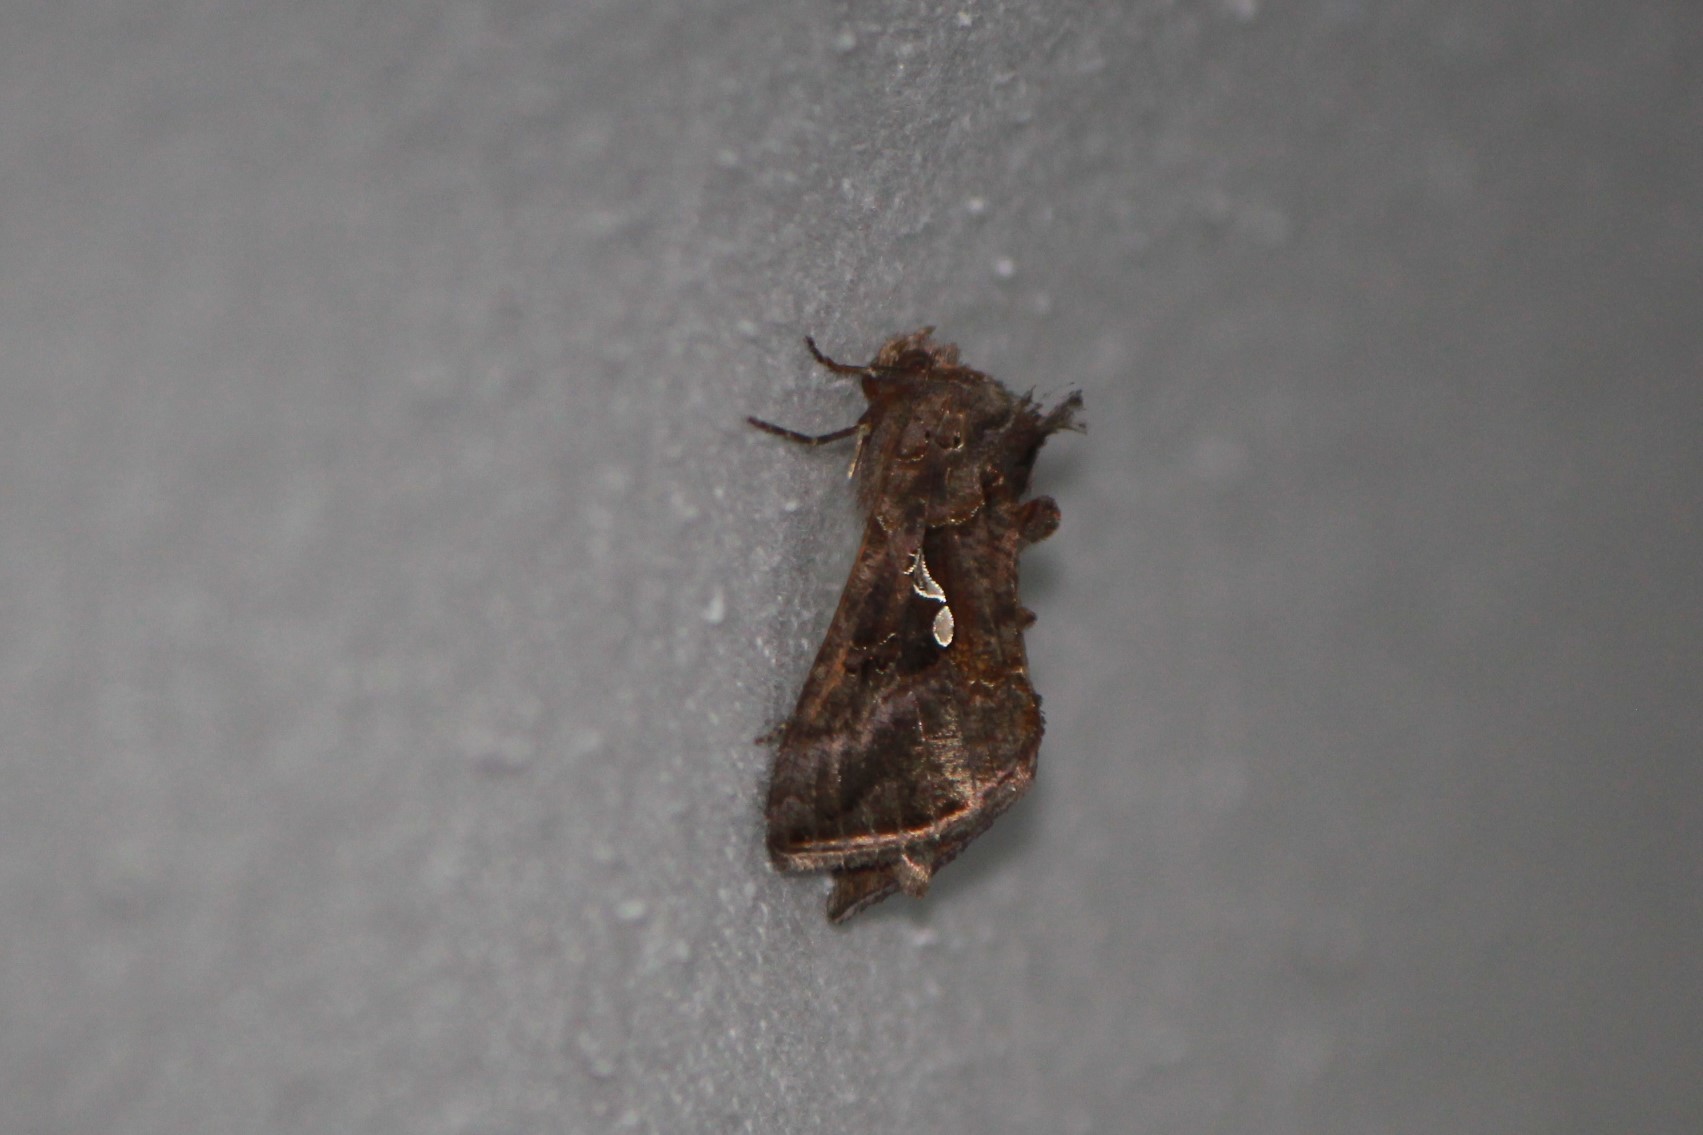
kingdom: Animalia
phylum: Arthropoda
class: Insecta
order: Lepidoptera
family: Noctuidae
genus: Autographa
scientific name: Autographa precationis
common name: Common looper moth
